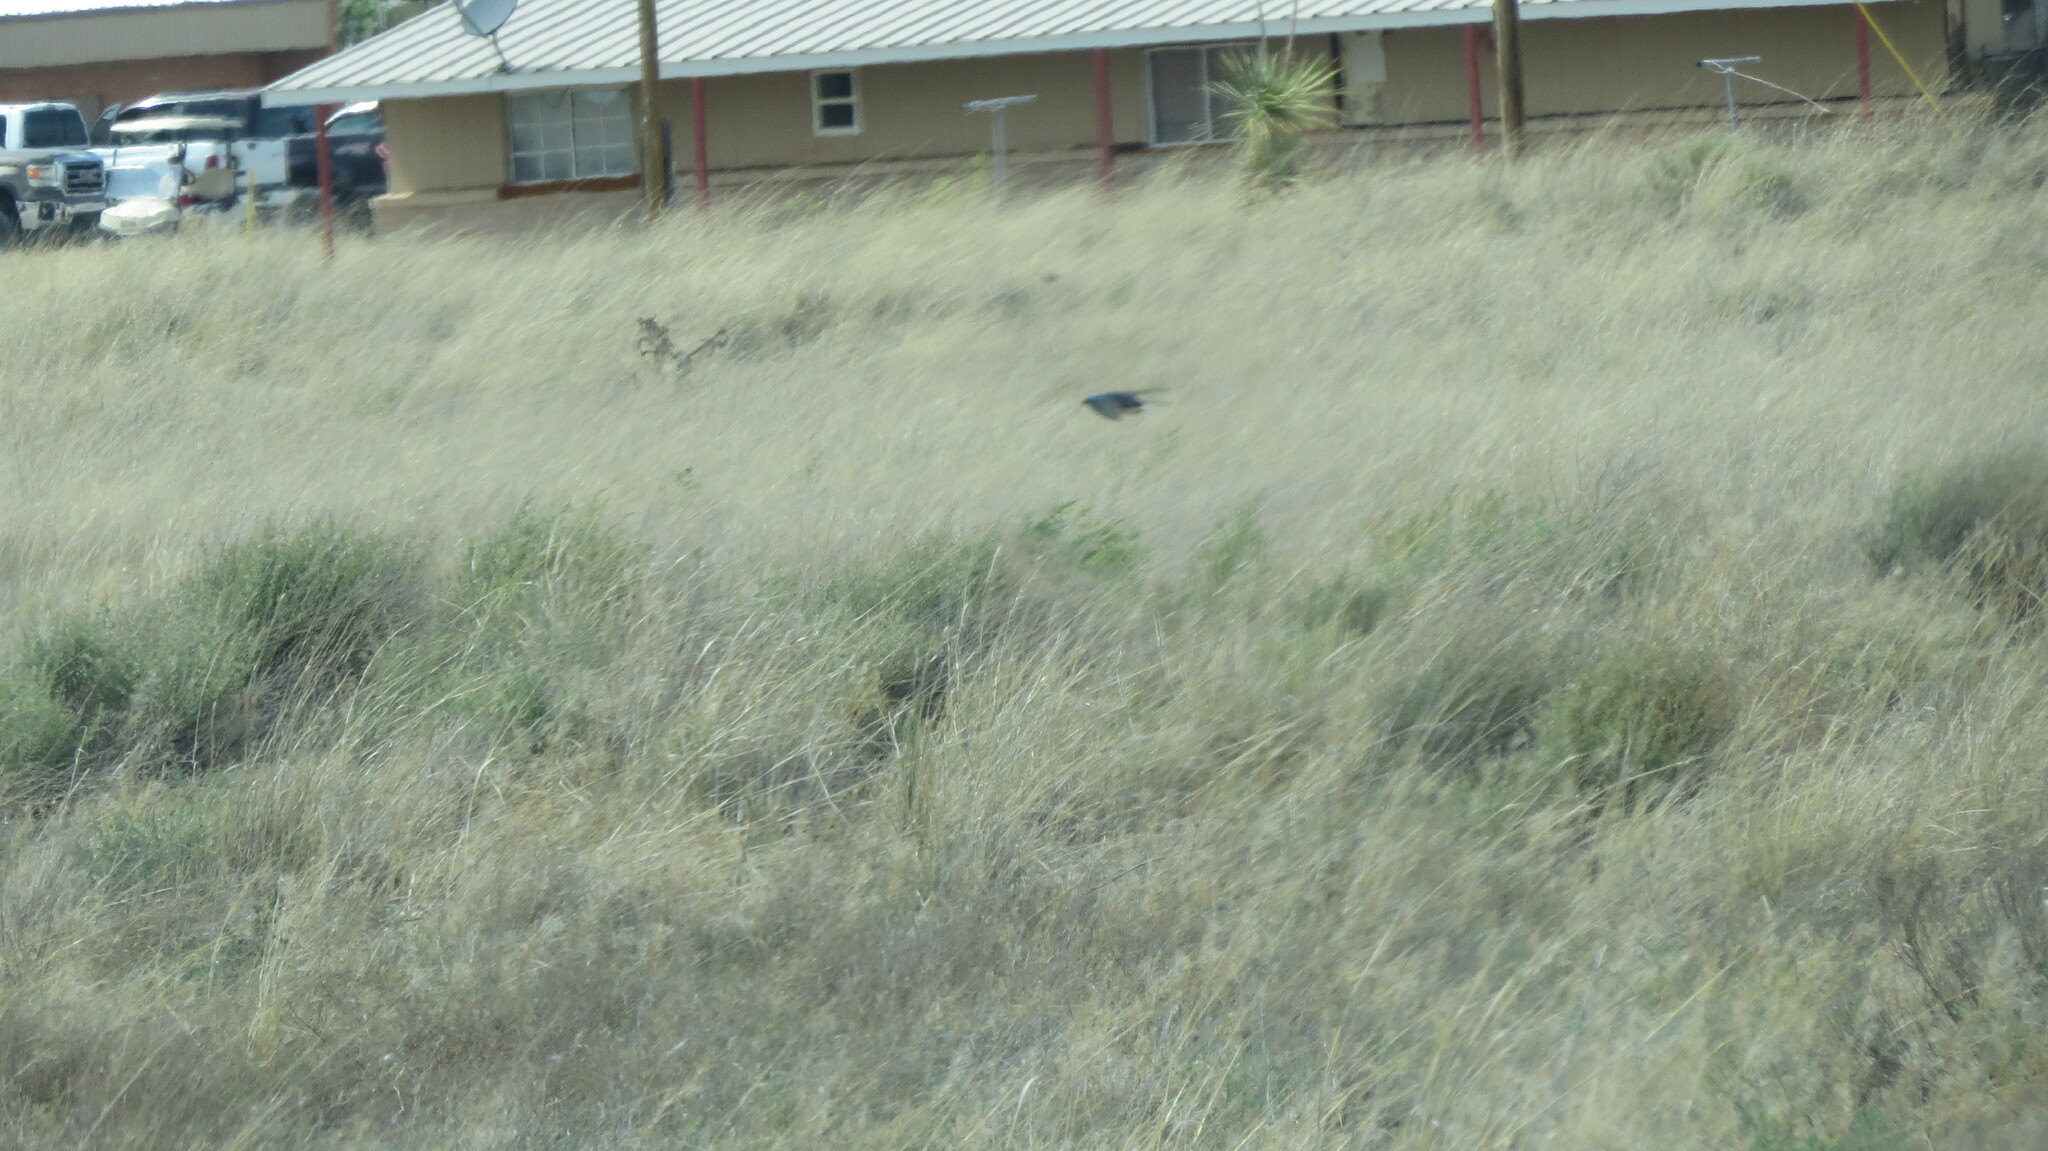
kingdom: Animalia
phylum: Chordata
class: Aves
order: Passeriformes
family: Hirundinidae
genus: Tachycineta
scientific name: Tachycineta bicolor
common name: Tree swallow
